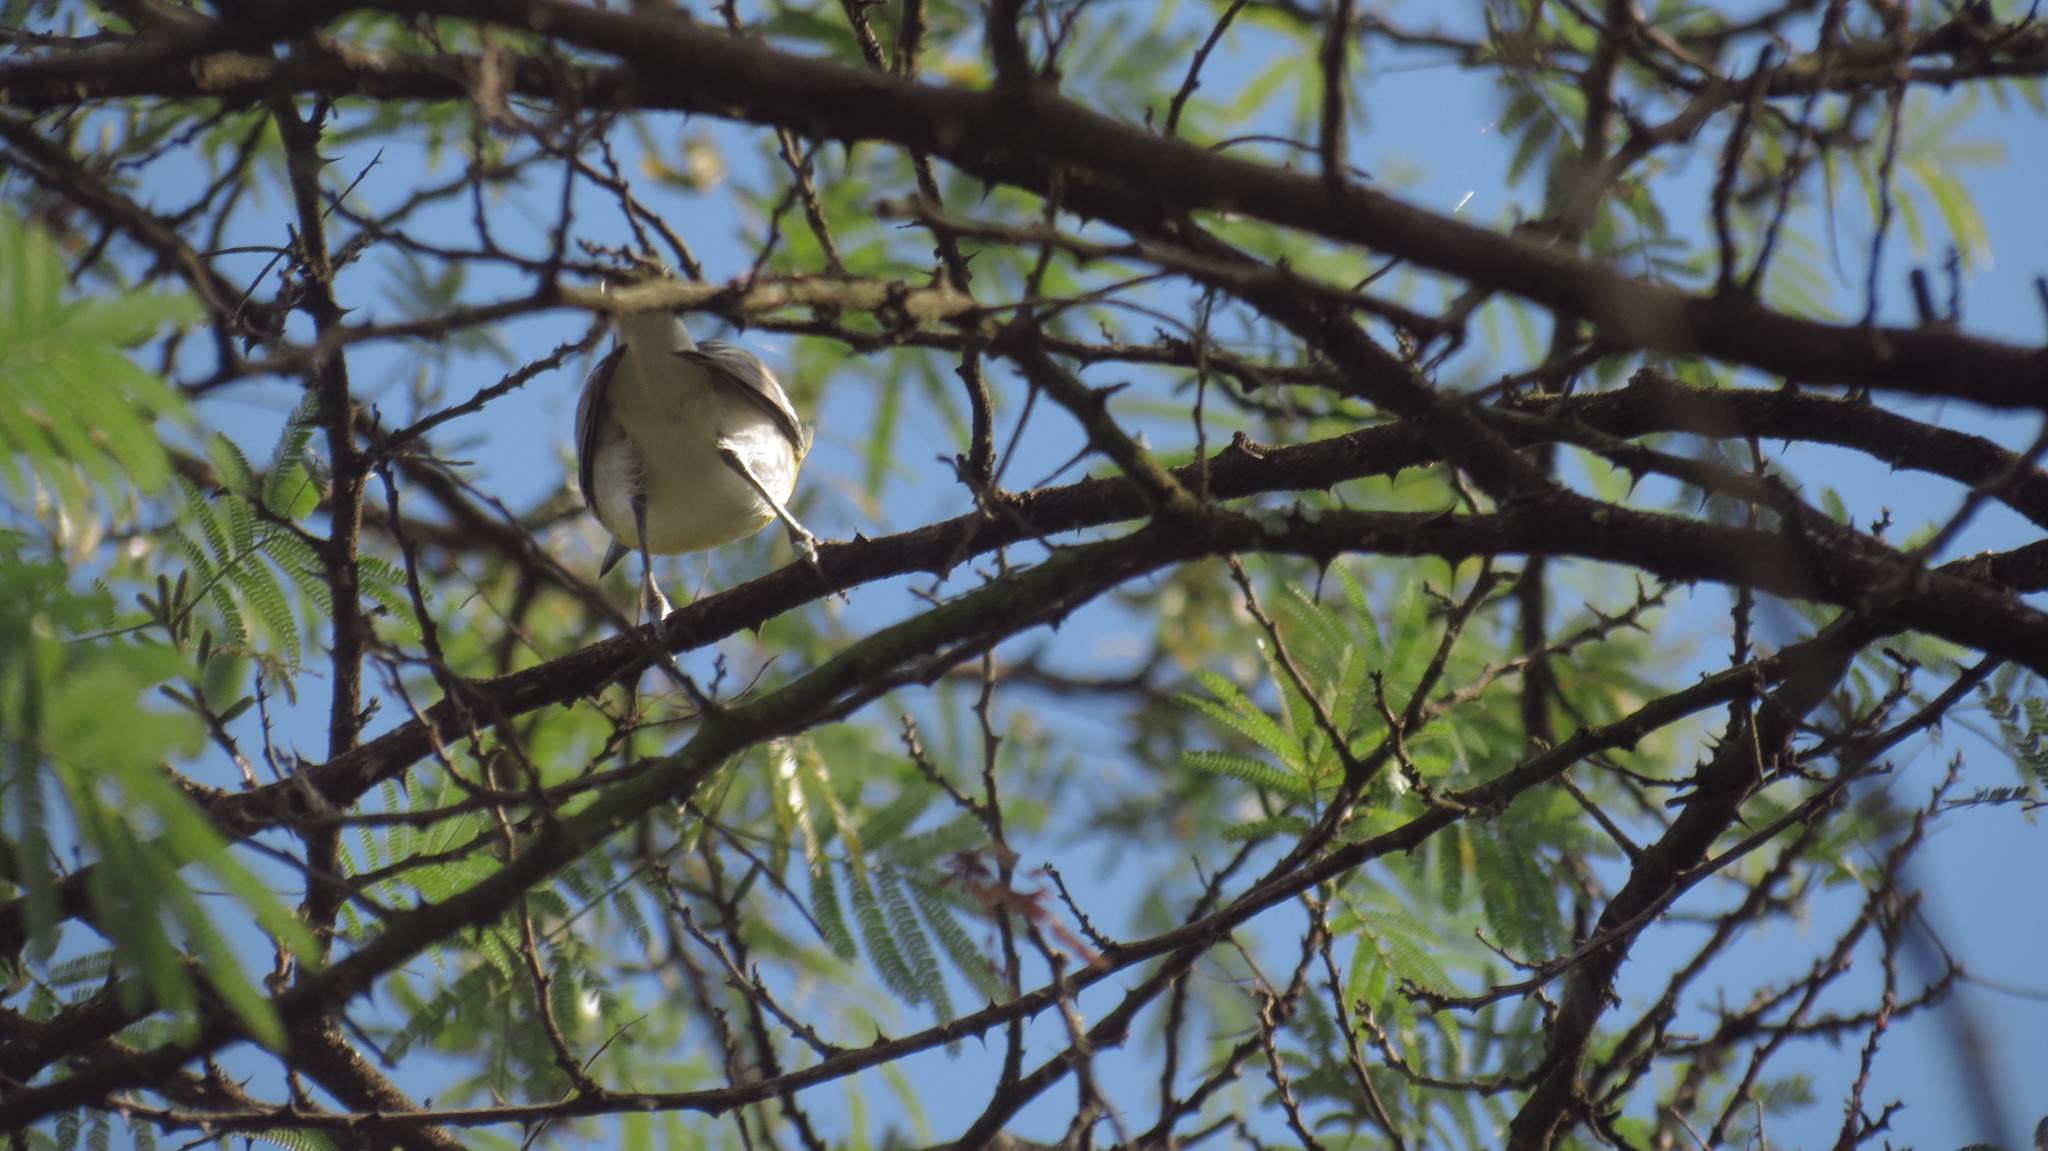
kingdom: Animalia
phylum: Chordata
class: Aves
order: Passeriformes
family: Vireonidae
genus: Vireo
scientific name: Vireo flavifrons
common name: Yellow-throated vireo
